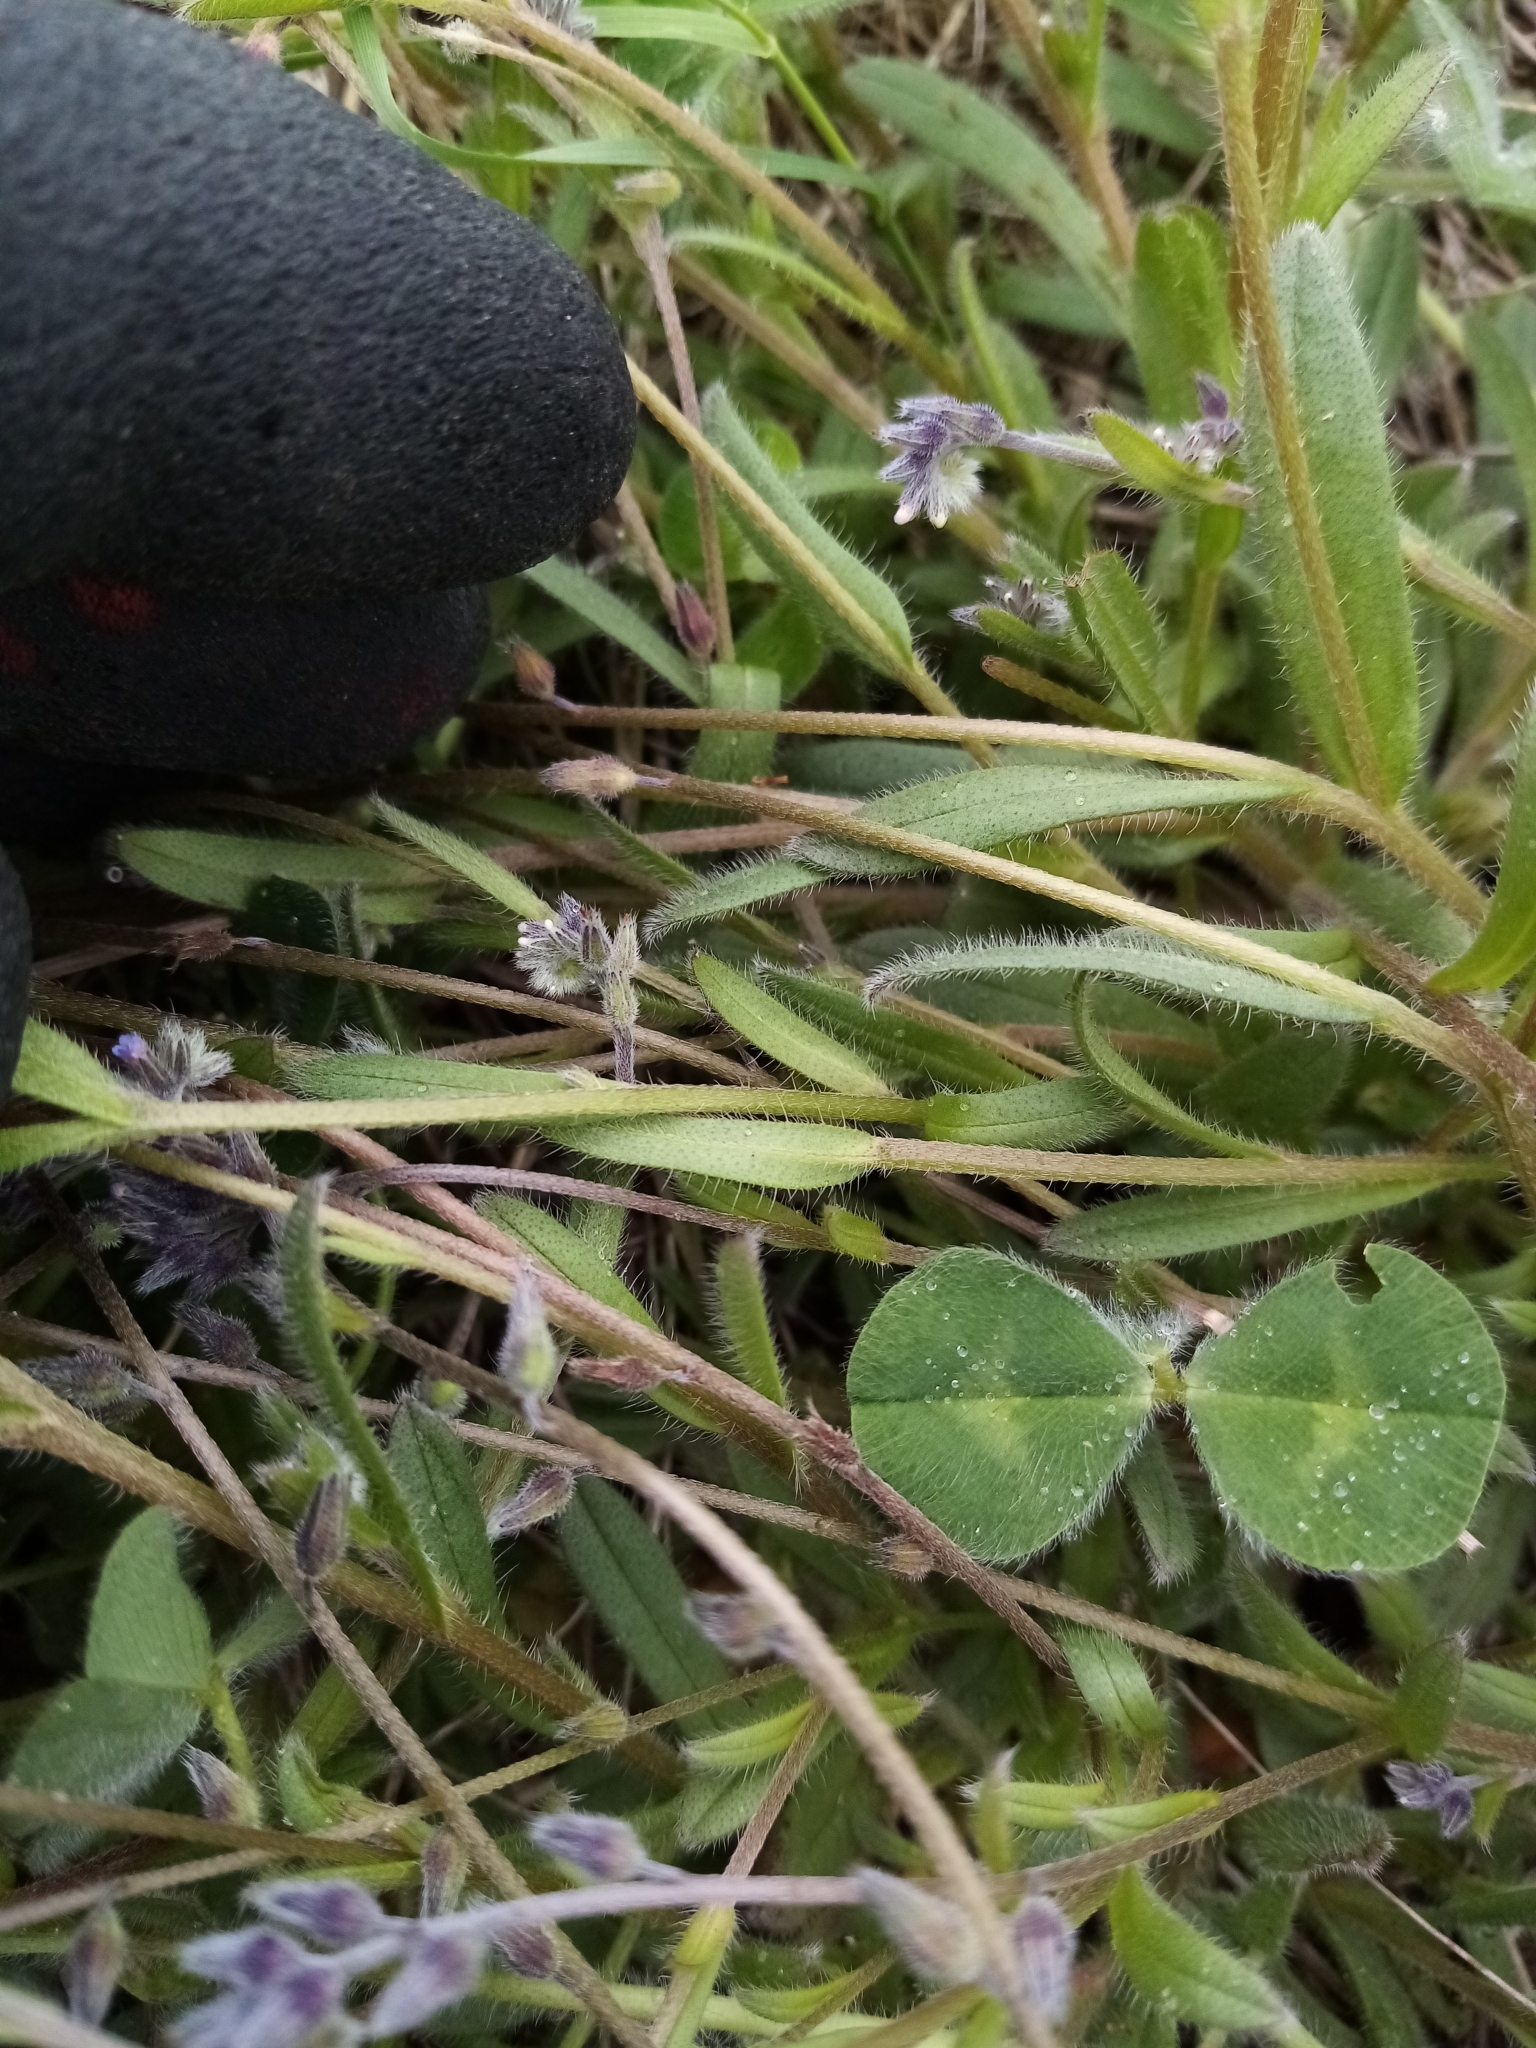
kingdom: Plantae
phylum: Tracheophyta
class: Magnoliopsida
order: Boraginales
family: Boraginaceae
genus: Myosotis
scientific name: Myosotis discolor
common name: Changing forget-me-not
